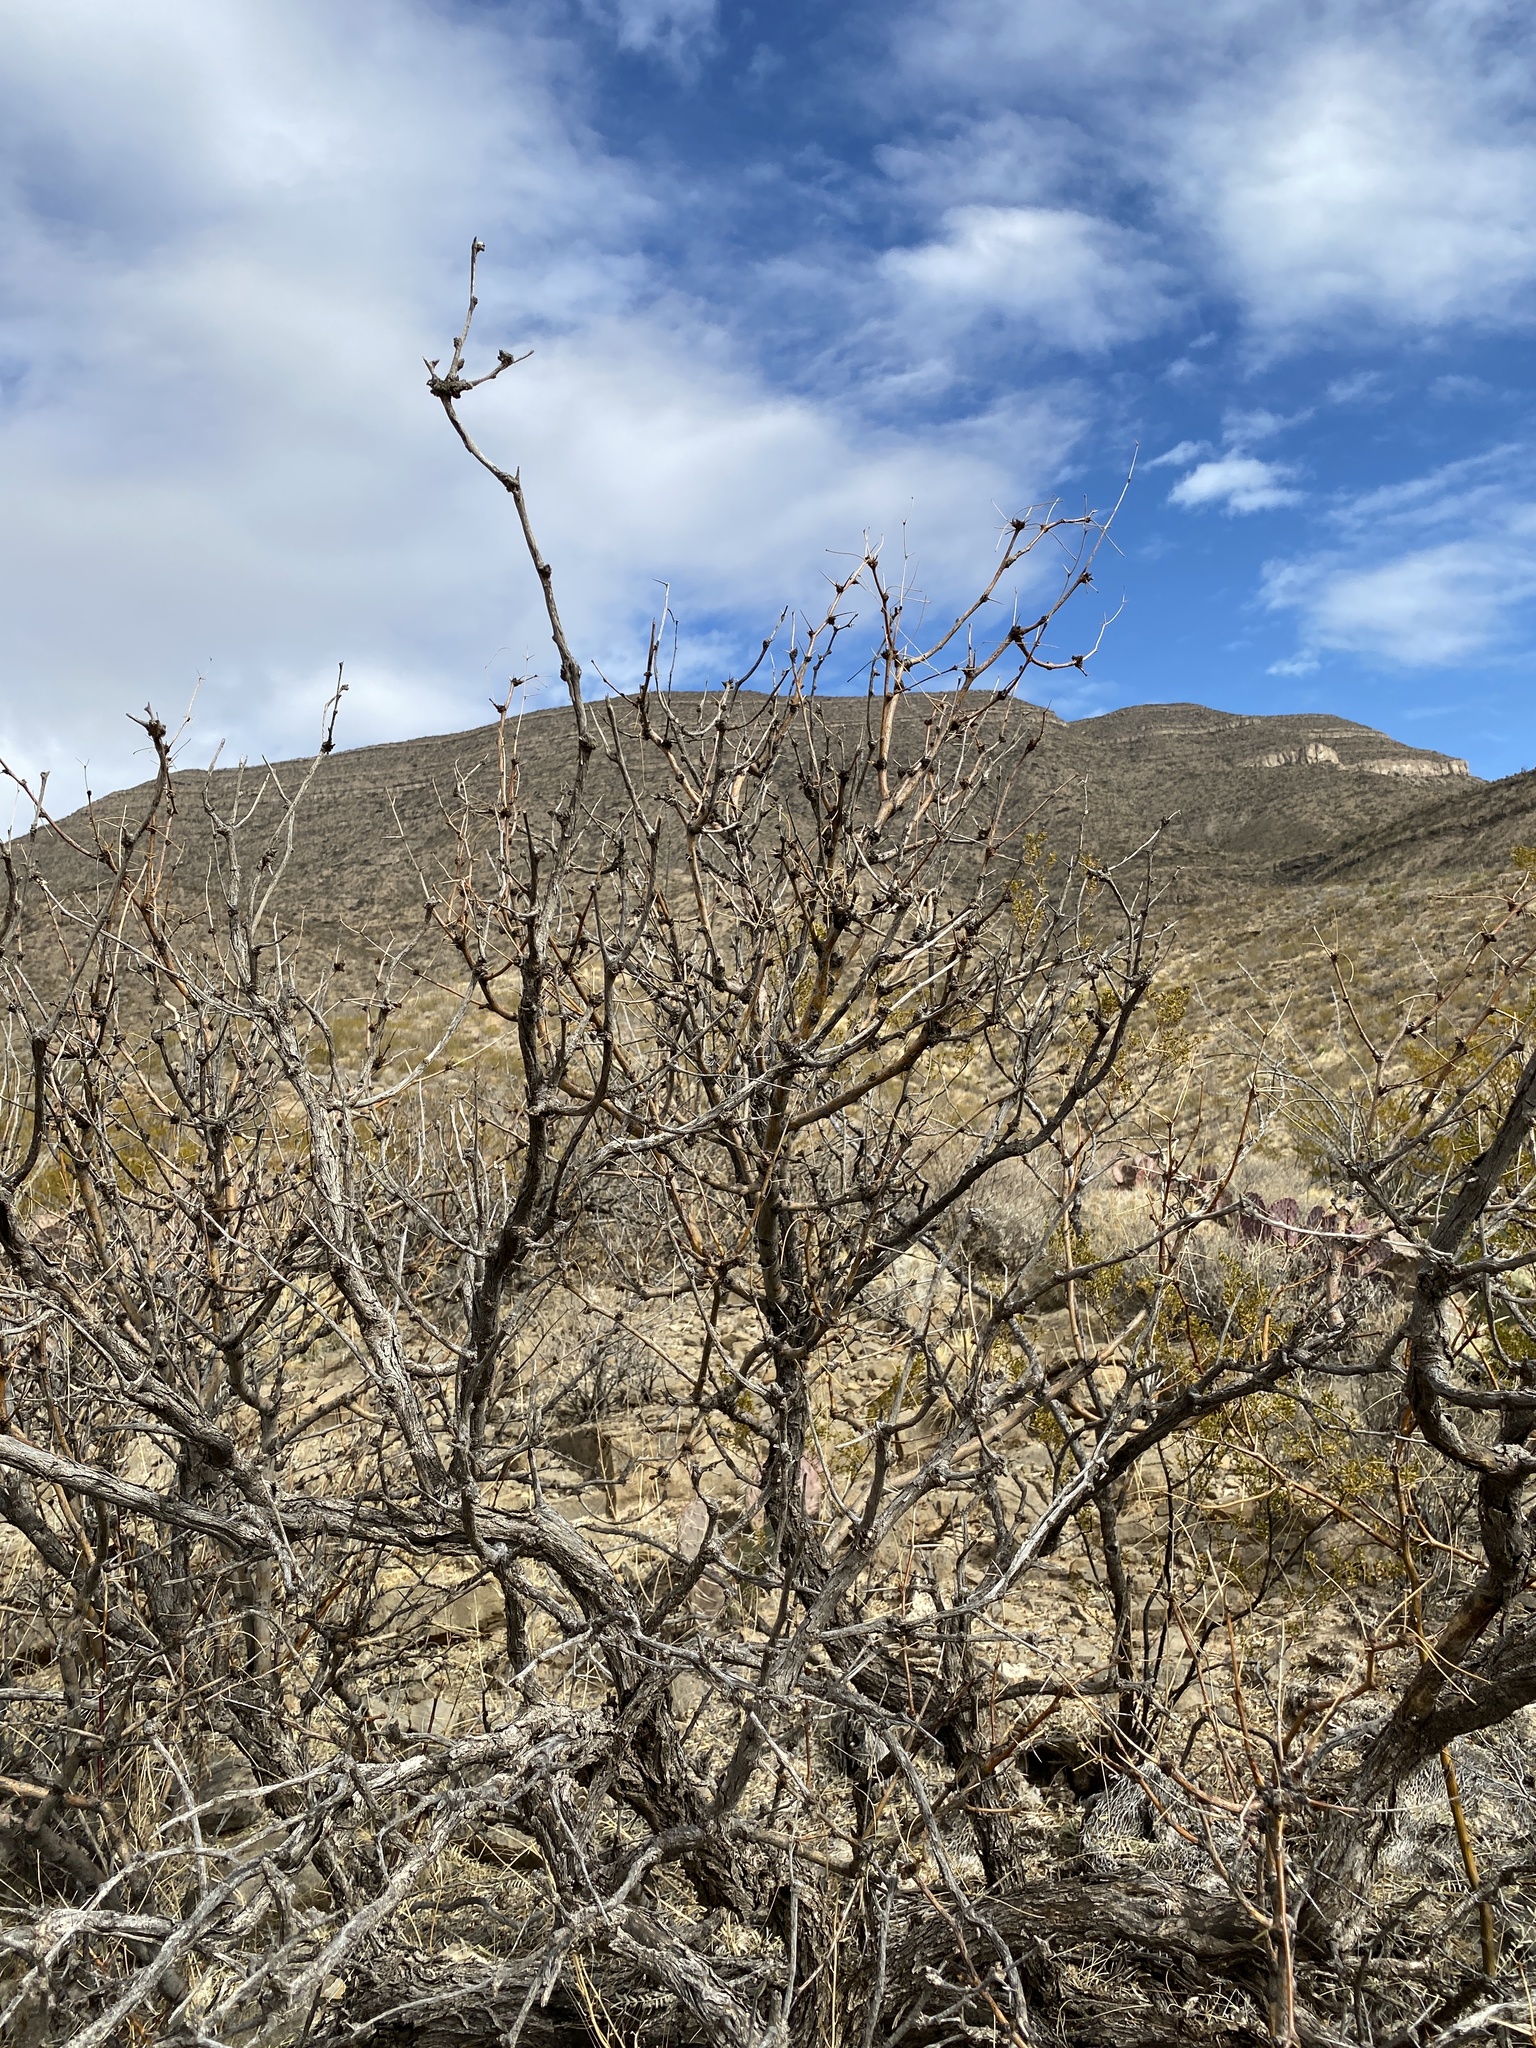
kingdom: Plantae
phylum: Tracheophyta
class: Magnoliopsida
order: Fabales
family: Fabaceae
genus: Prosopis
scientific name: Prosopis glandulosa
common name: Honey mesquite
